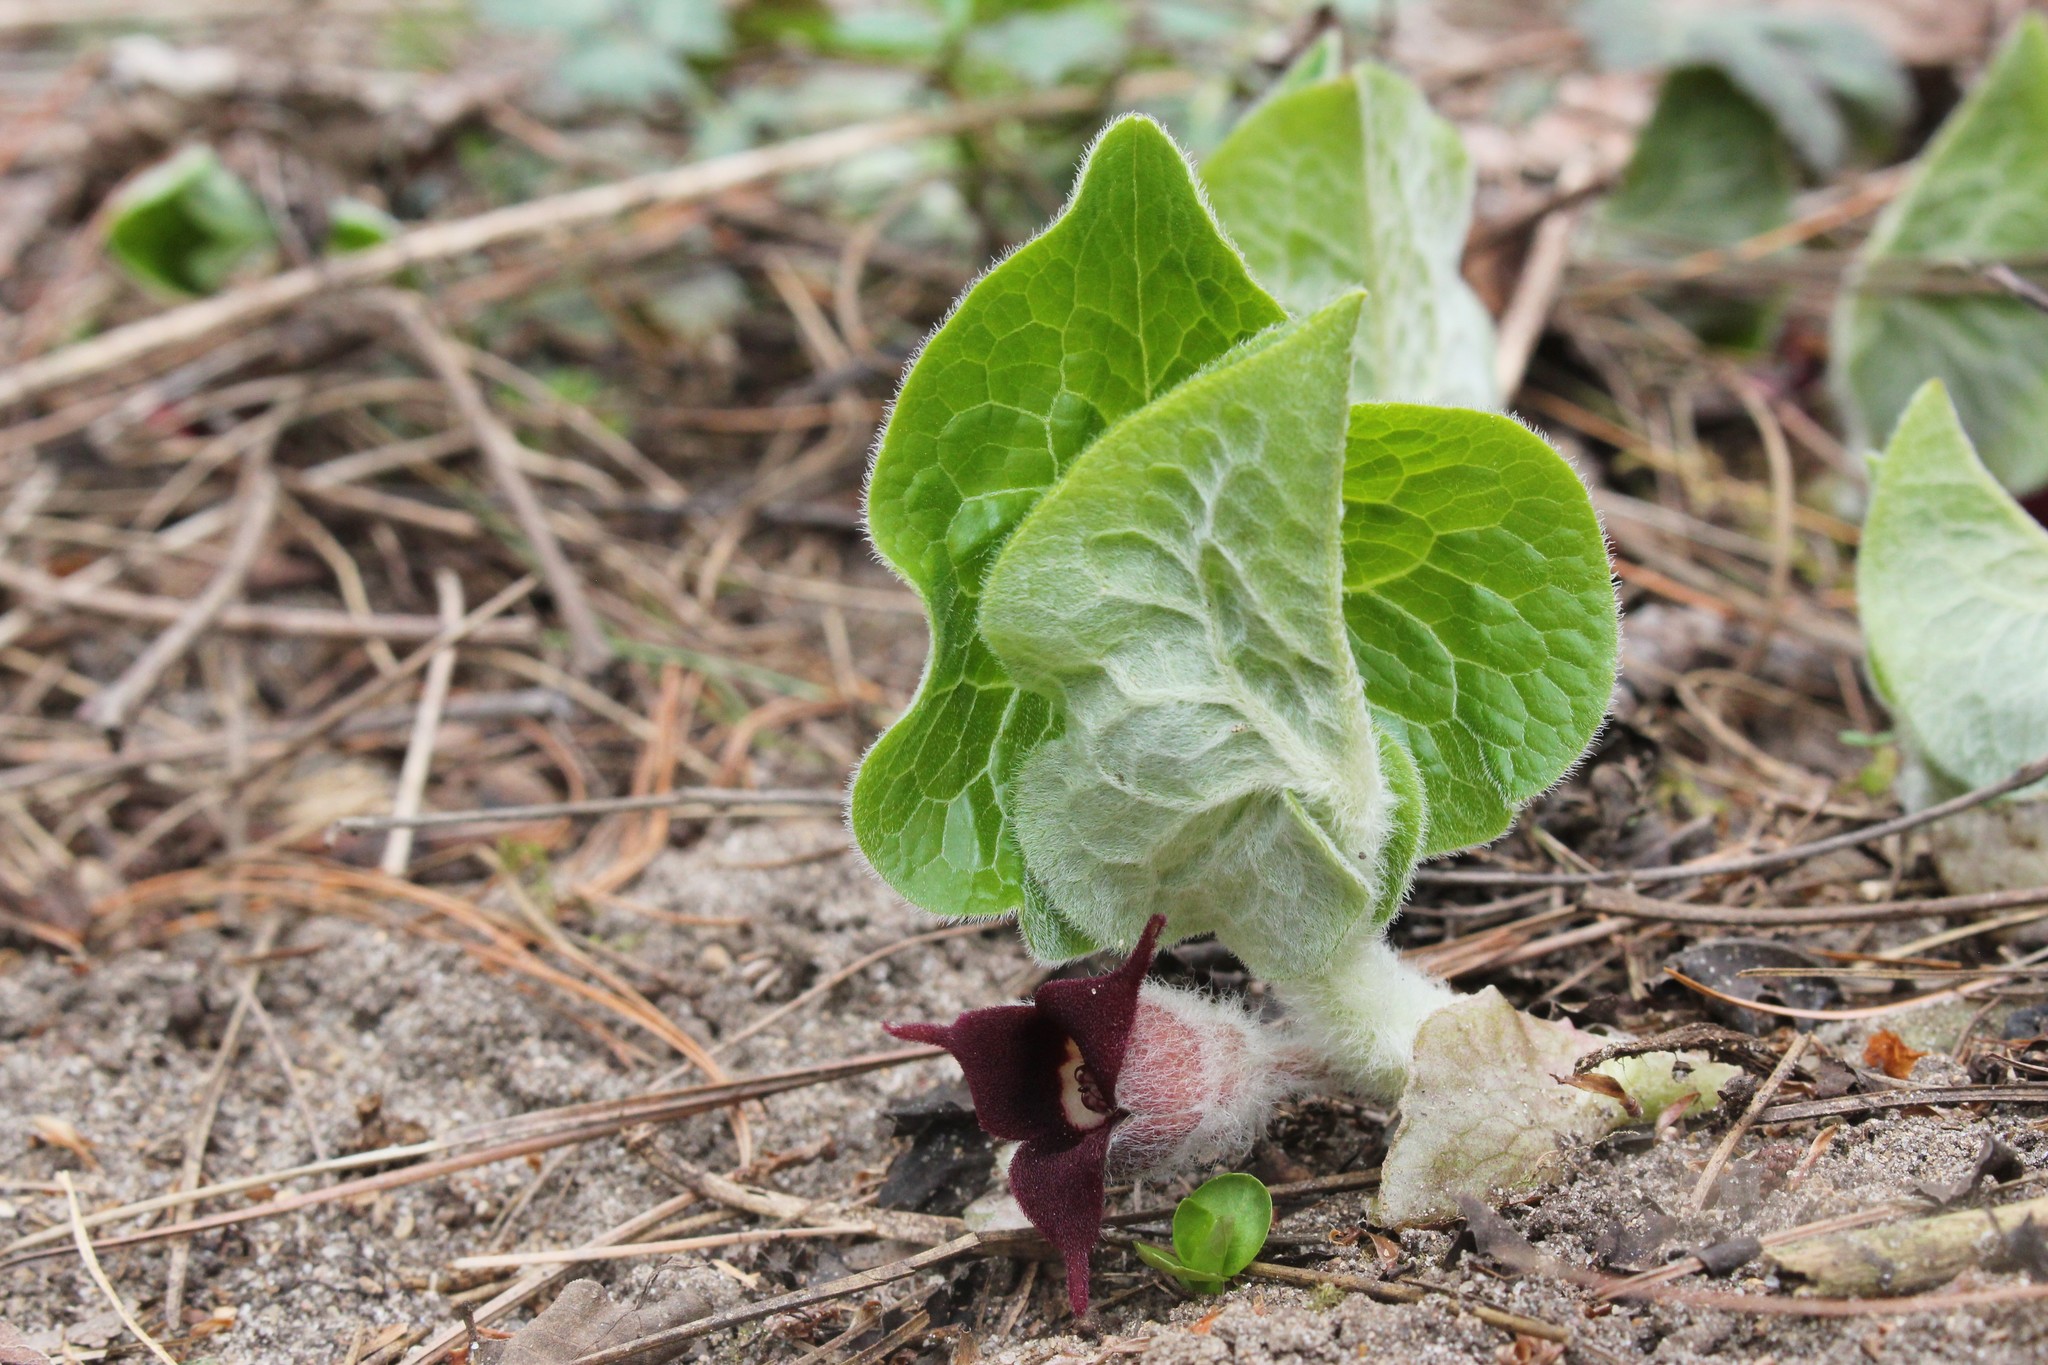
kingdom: Plantae
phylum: Tracheophyta
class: Magnoliopsida
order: Piperales
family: Aristolochiaceae
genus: Asarum
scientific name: Asarum canadense
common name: Wild ginger
